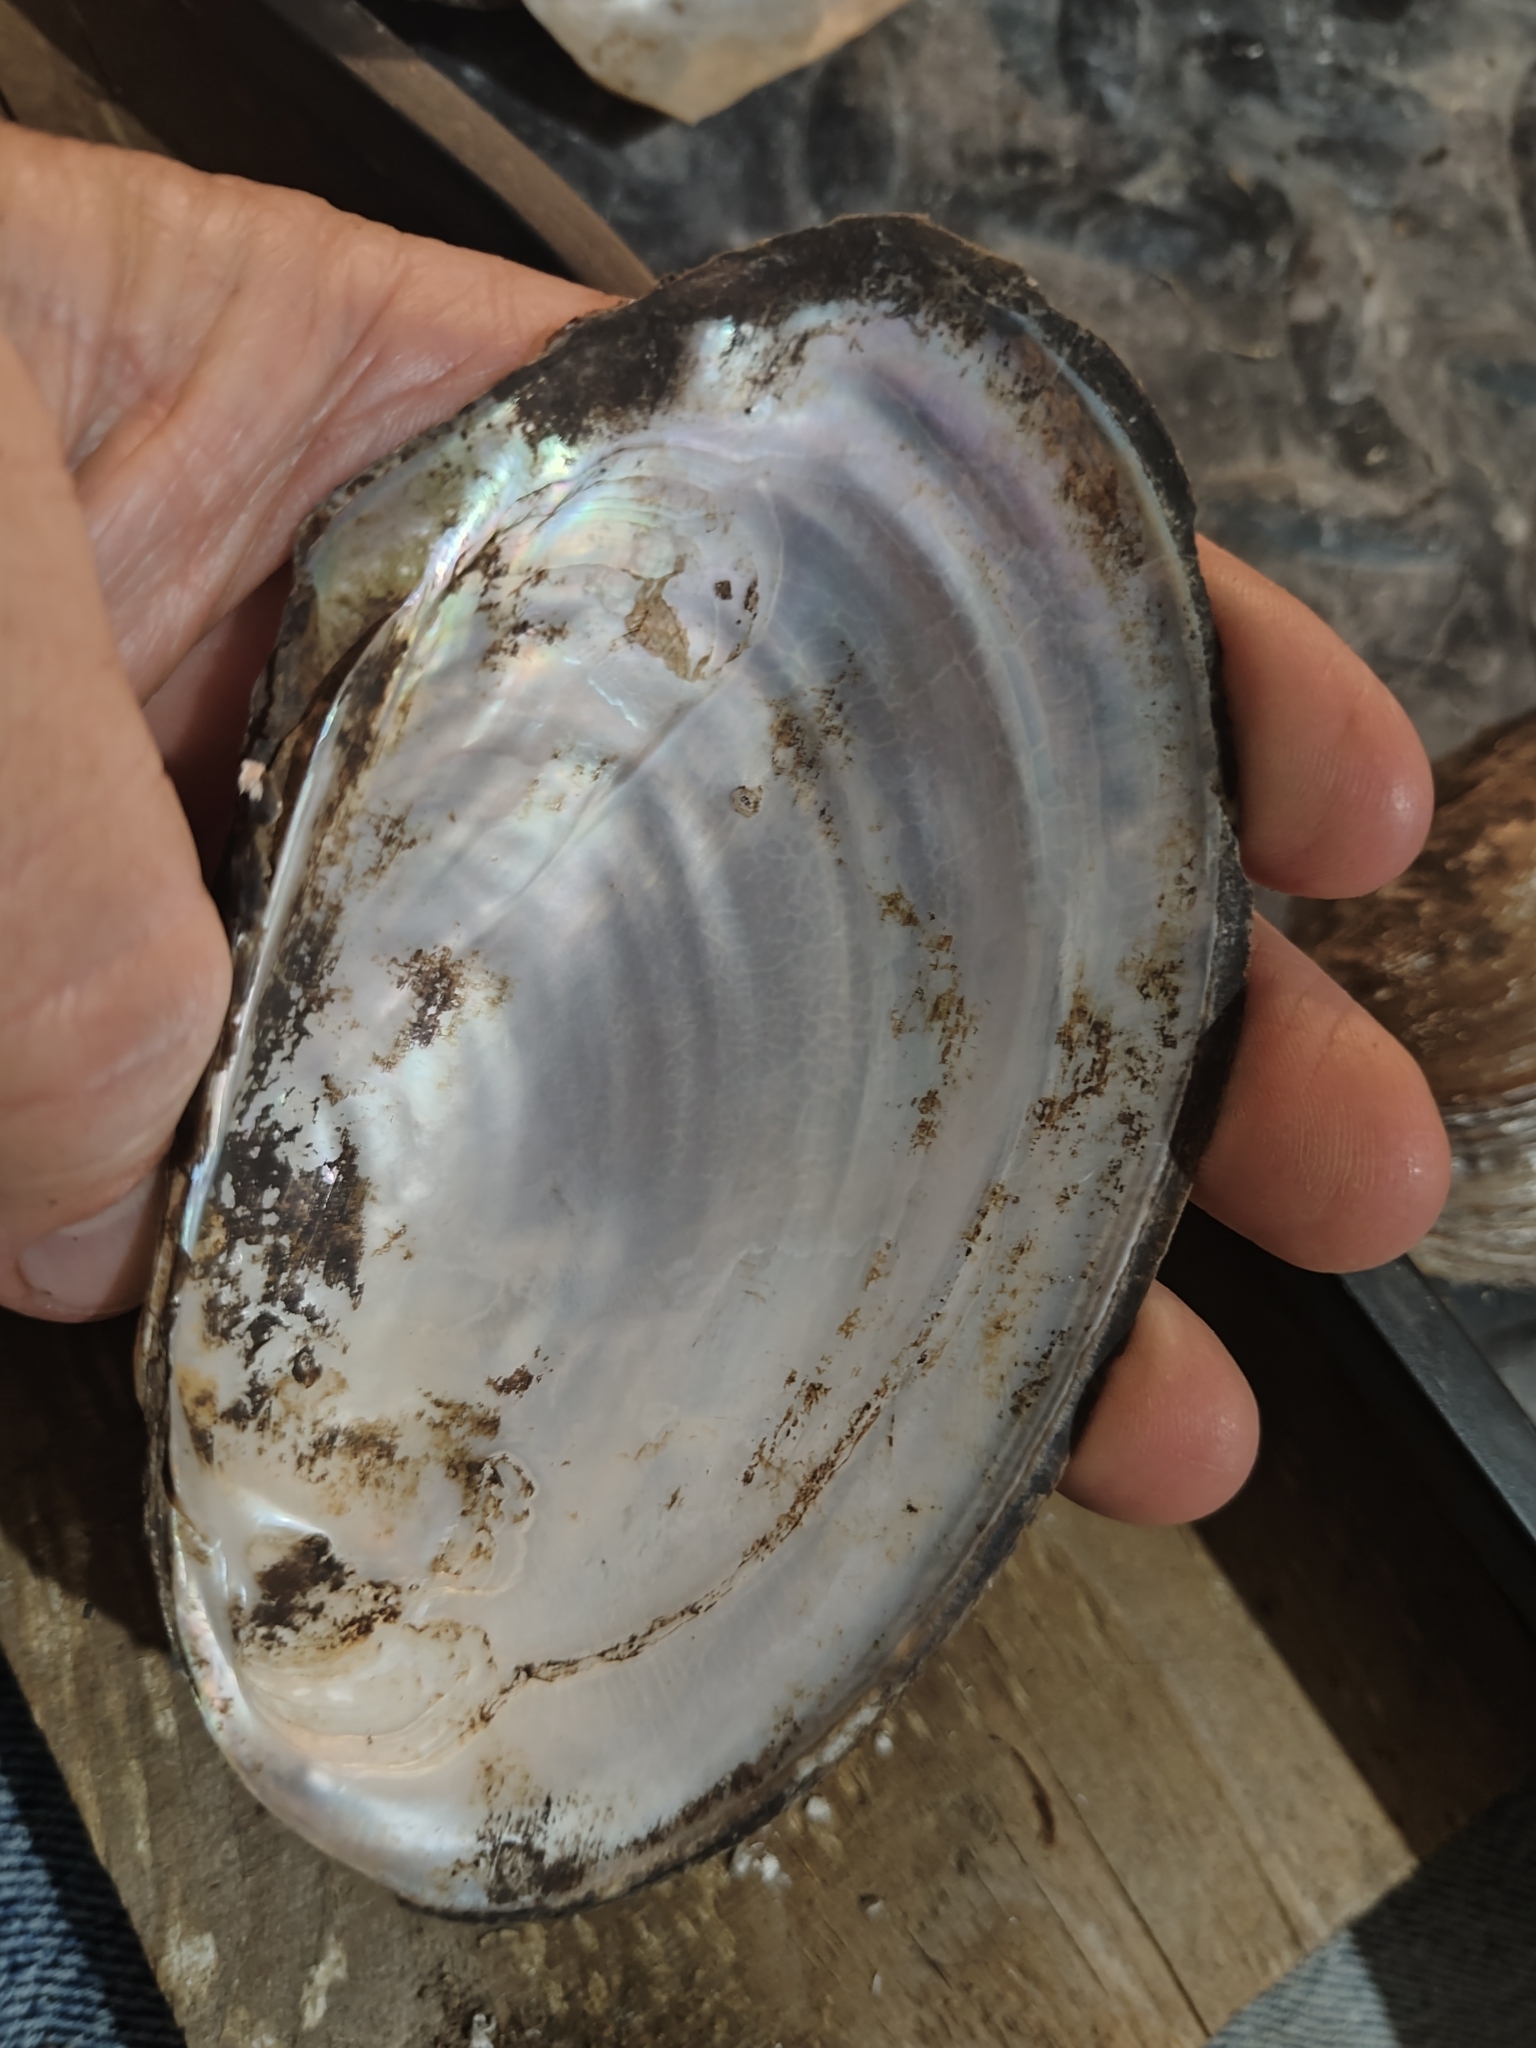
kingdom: Animalia
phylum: Mollusca
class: Bivalvia
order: Unionida
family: Unionidae
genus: Potamilus
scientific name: Potamilus fragilis
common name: Fragile papershell
